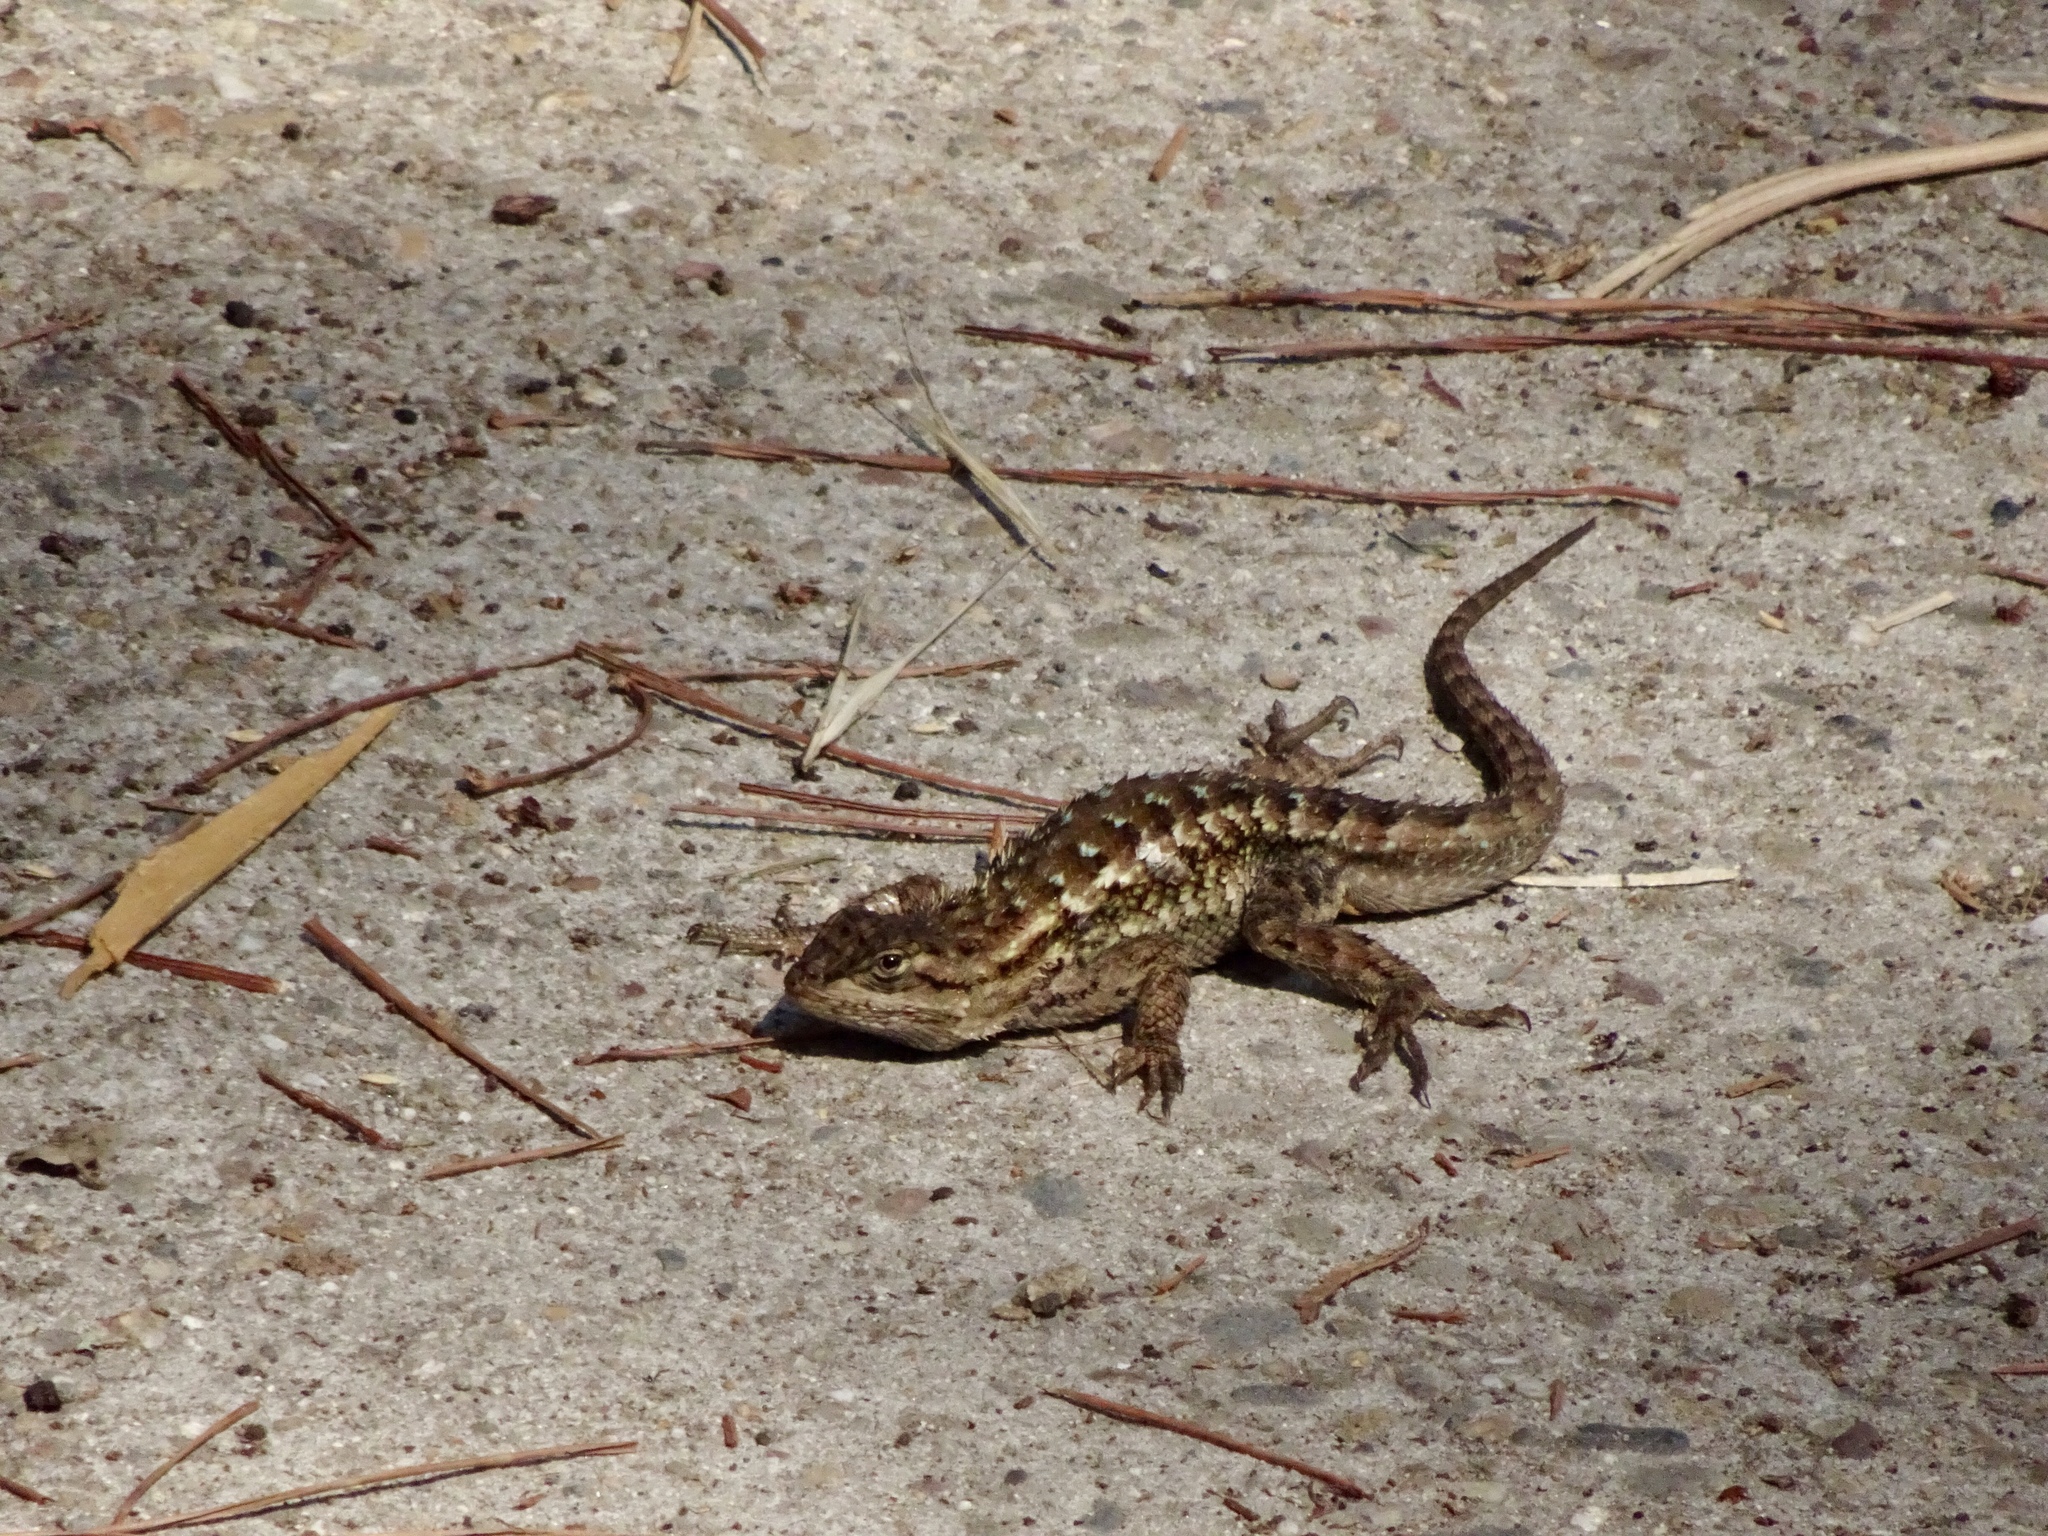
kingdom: Animalia
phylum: Chordata
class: Squamata
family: Phrynosomatidae
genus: Sceloporus
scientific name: Sceloporus occidentalis
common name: Western fence lizard
